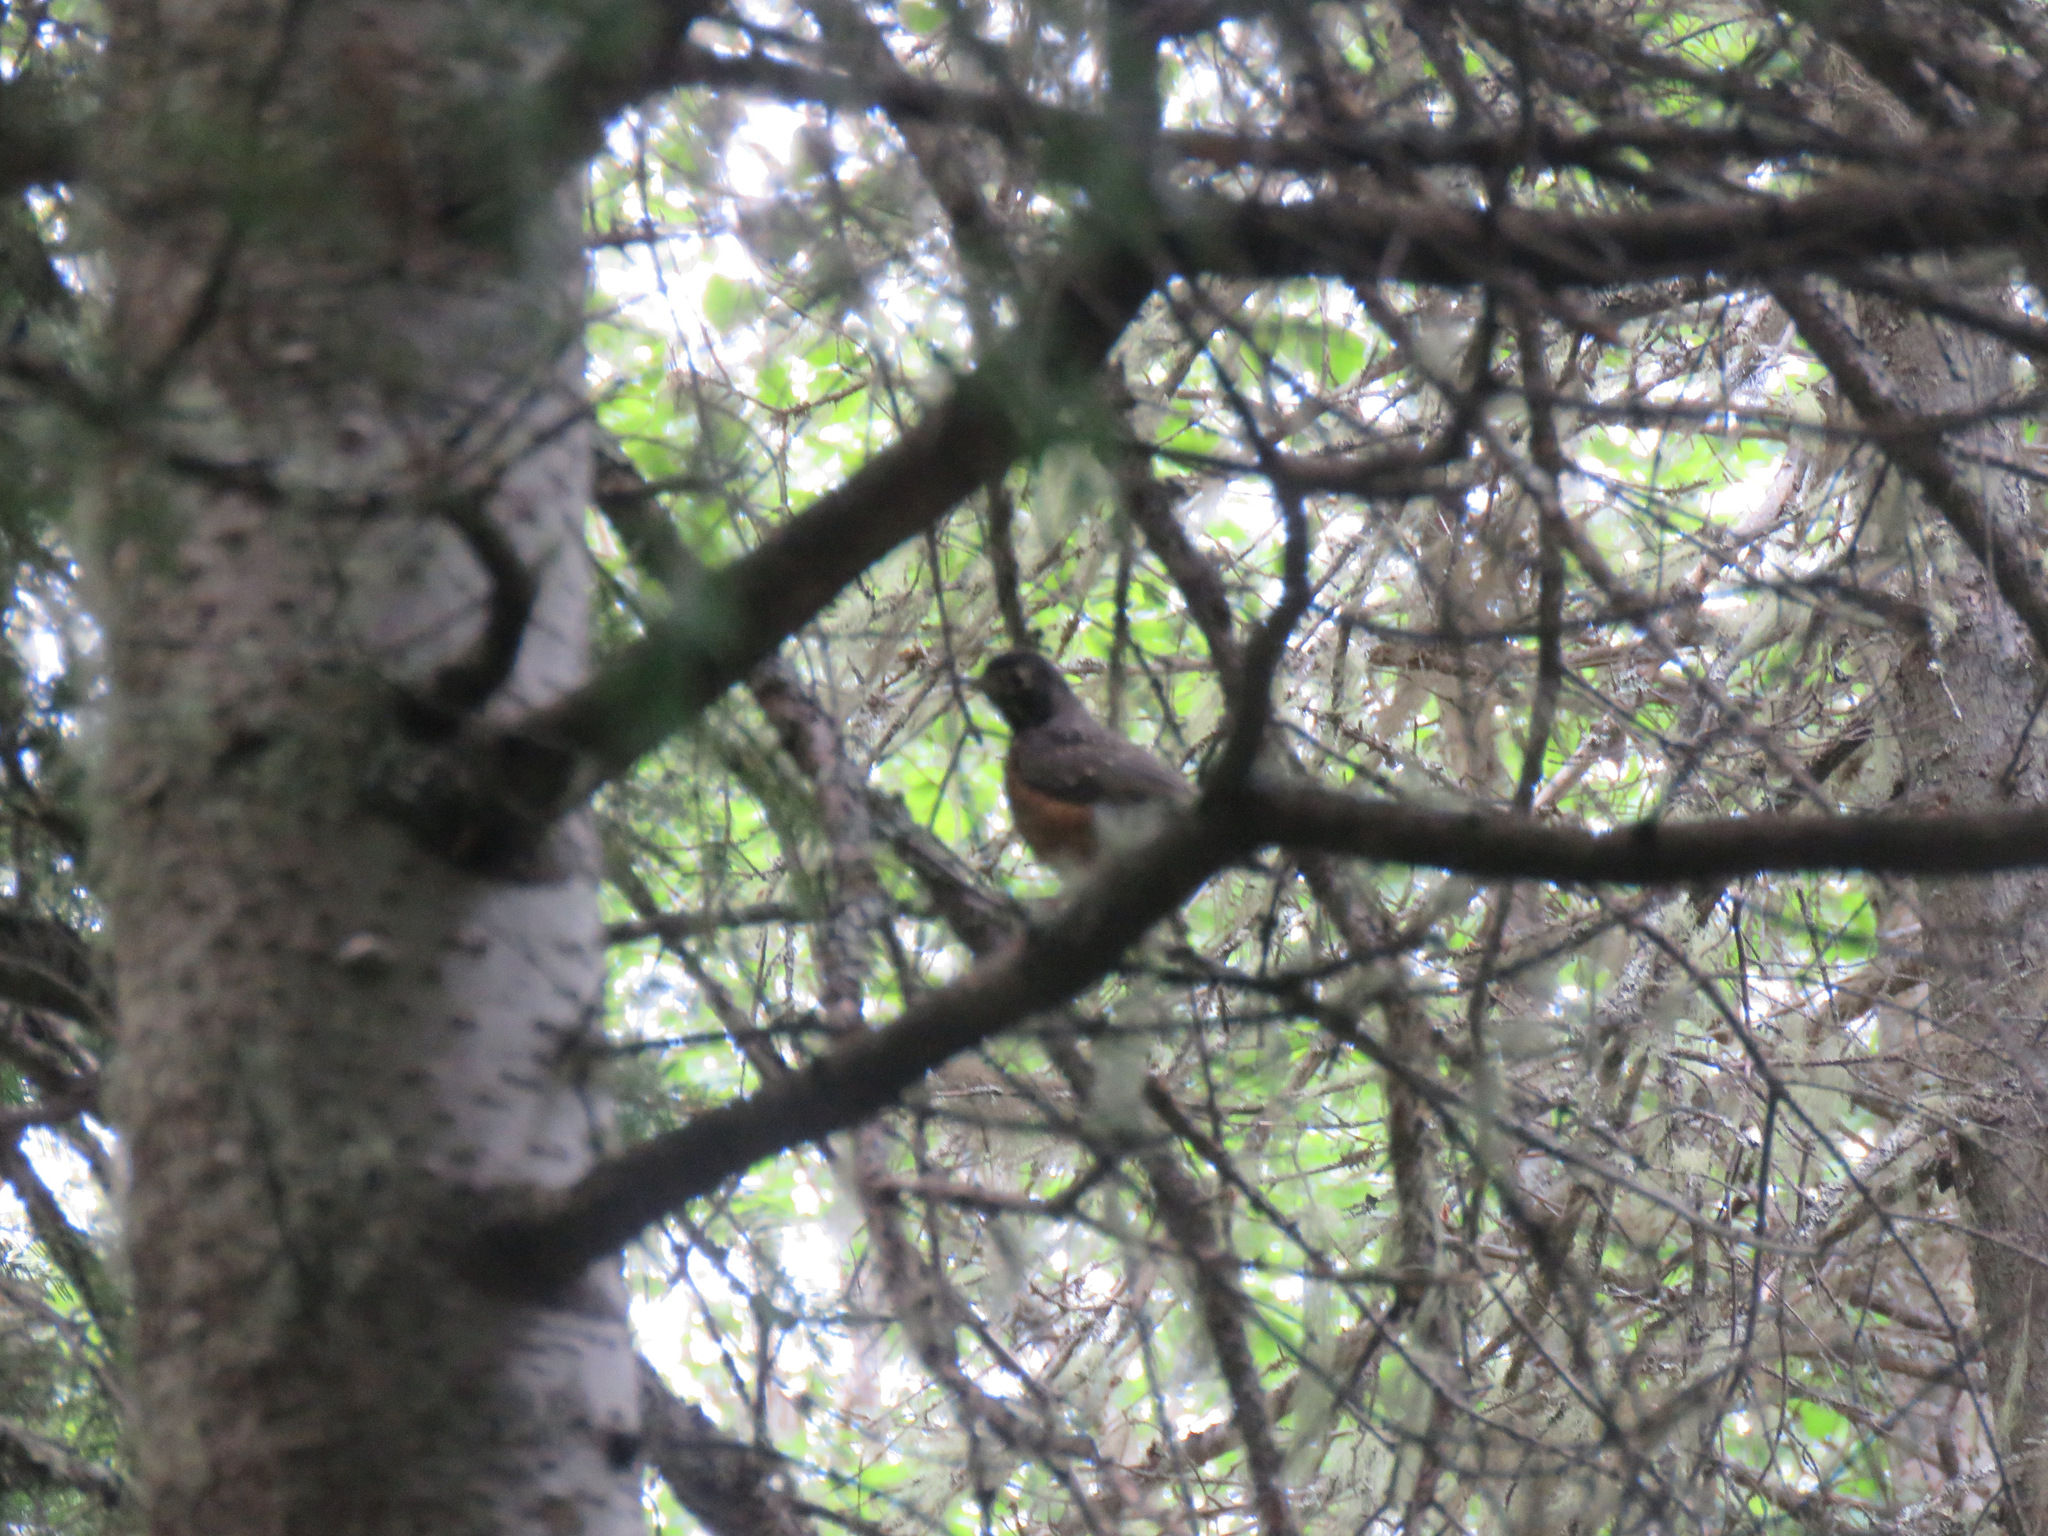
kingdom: Animalia
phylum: Chordata
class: Aves
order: Passeriformes
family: Turdidae
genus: Turdus
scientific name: Turdus migratorius
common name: American robin
